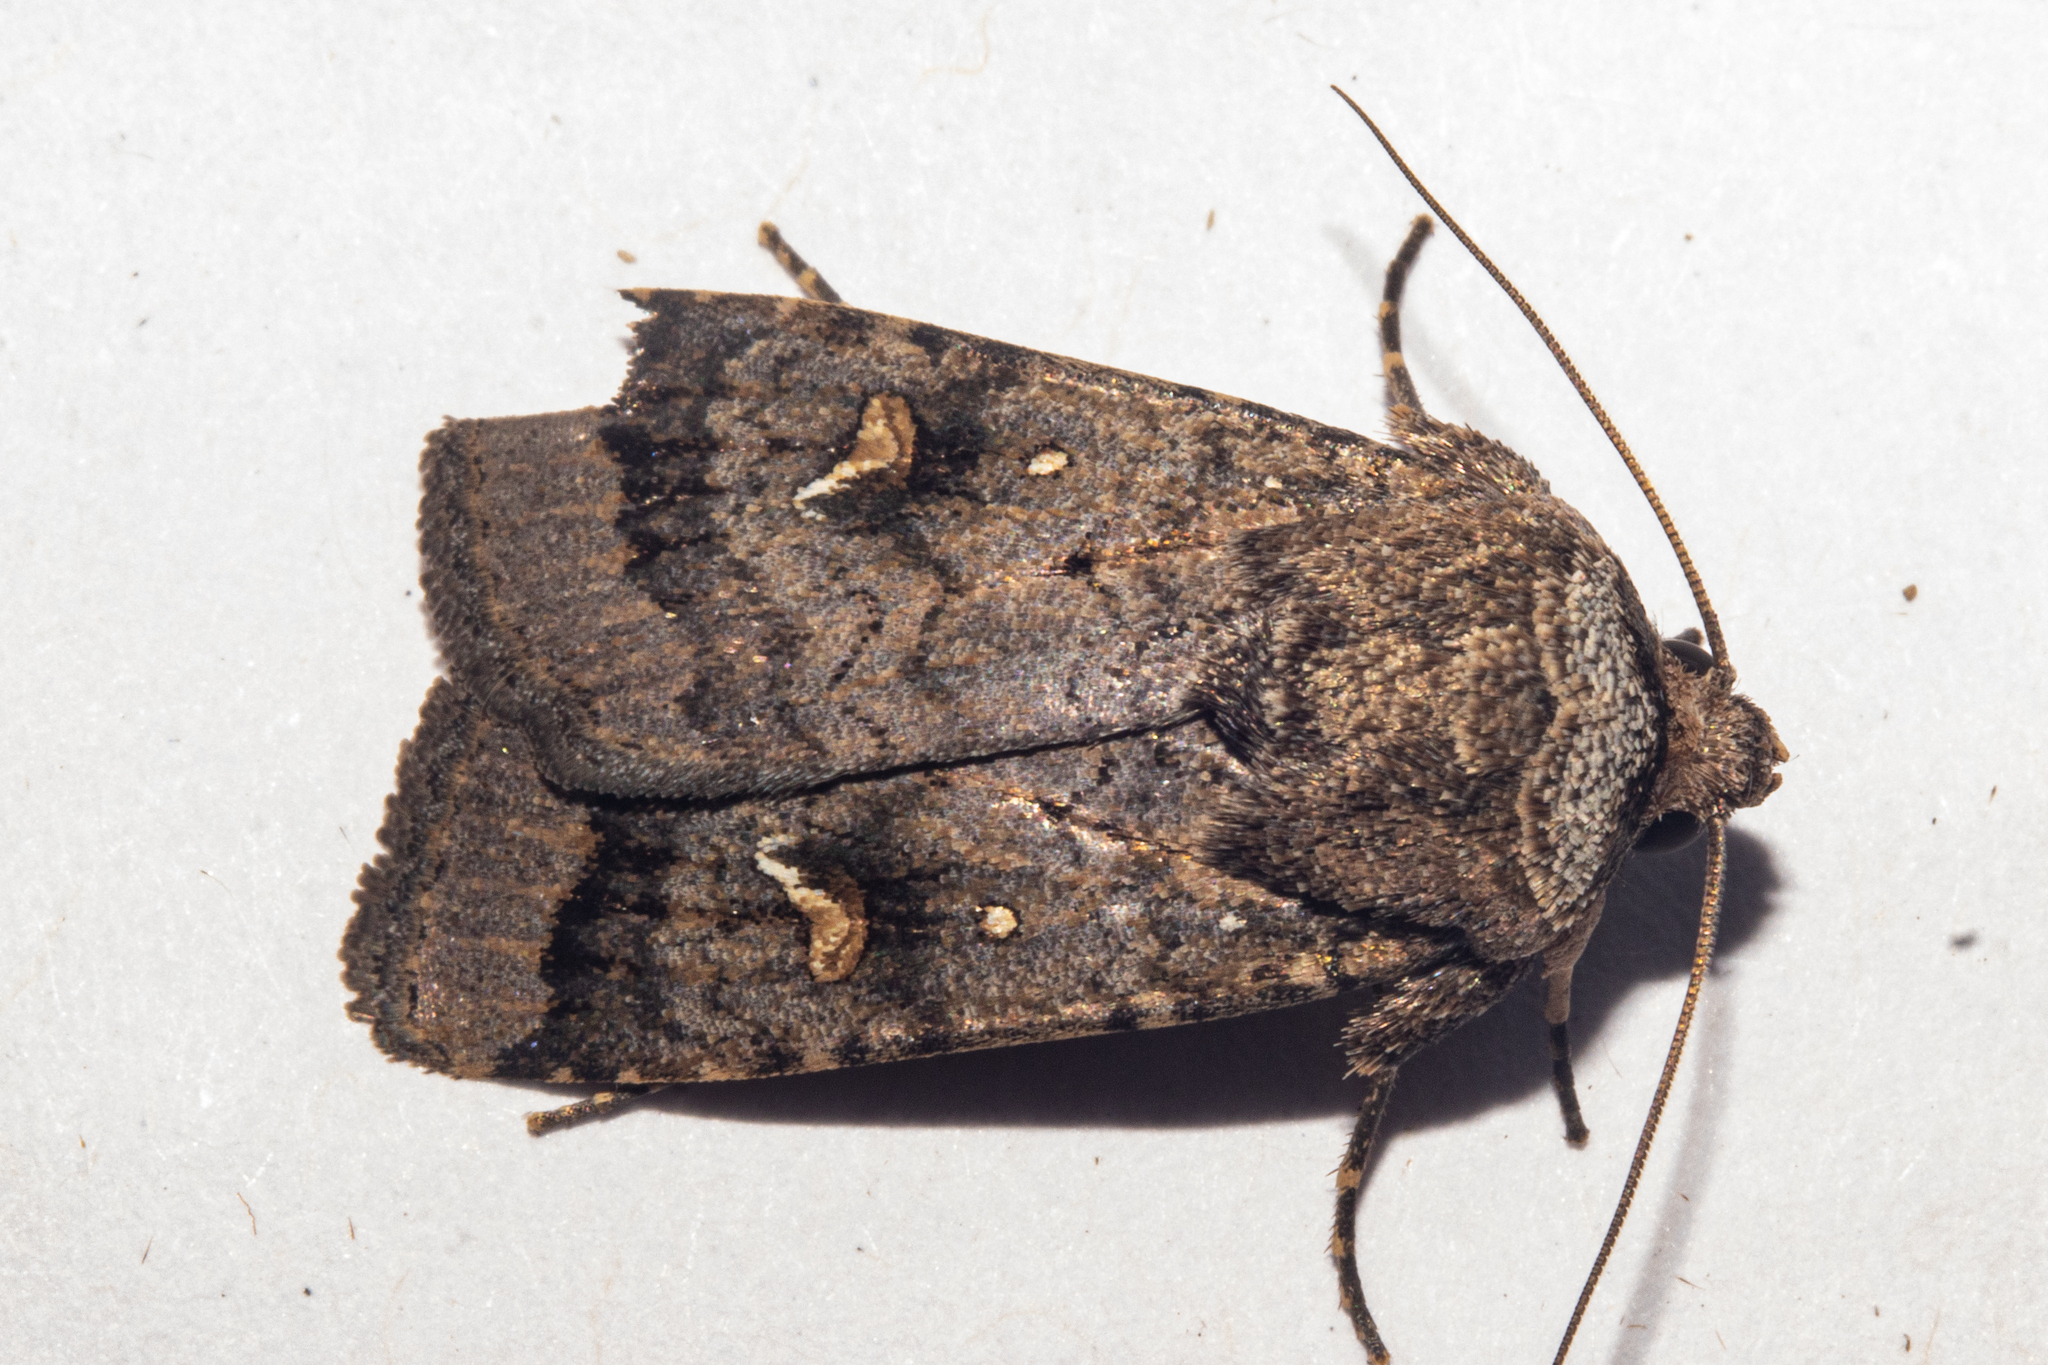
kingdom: Animalia
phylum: Arthropoda
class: Insecta
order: Lepidoptera
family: Noctuidae
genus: Proteuxoa
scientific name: Proteuxoa comma
